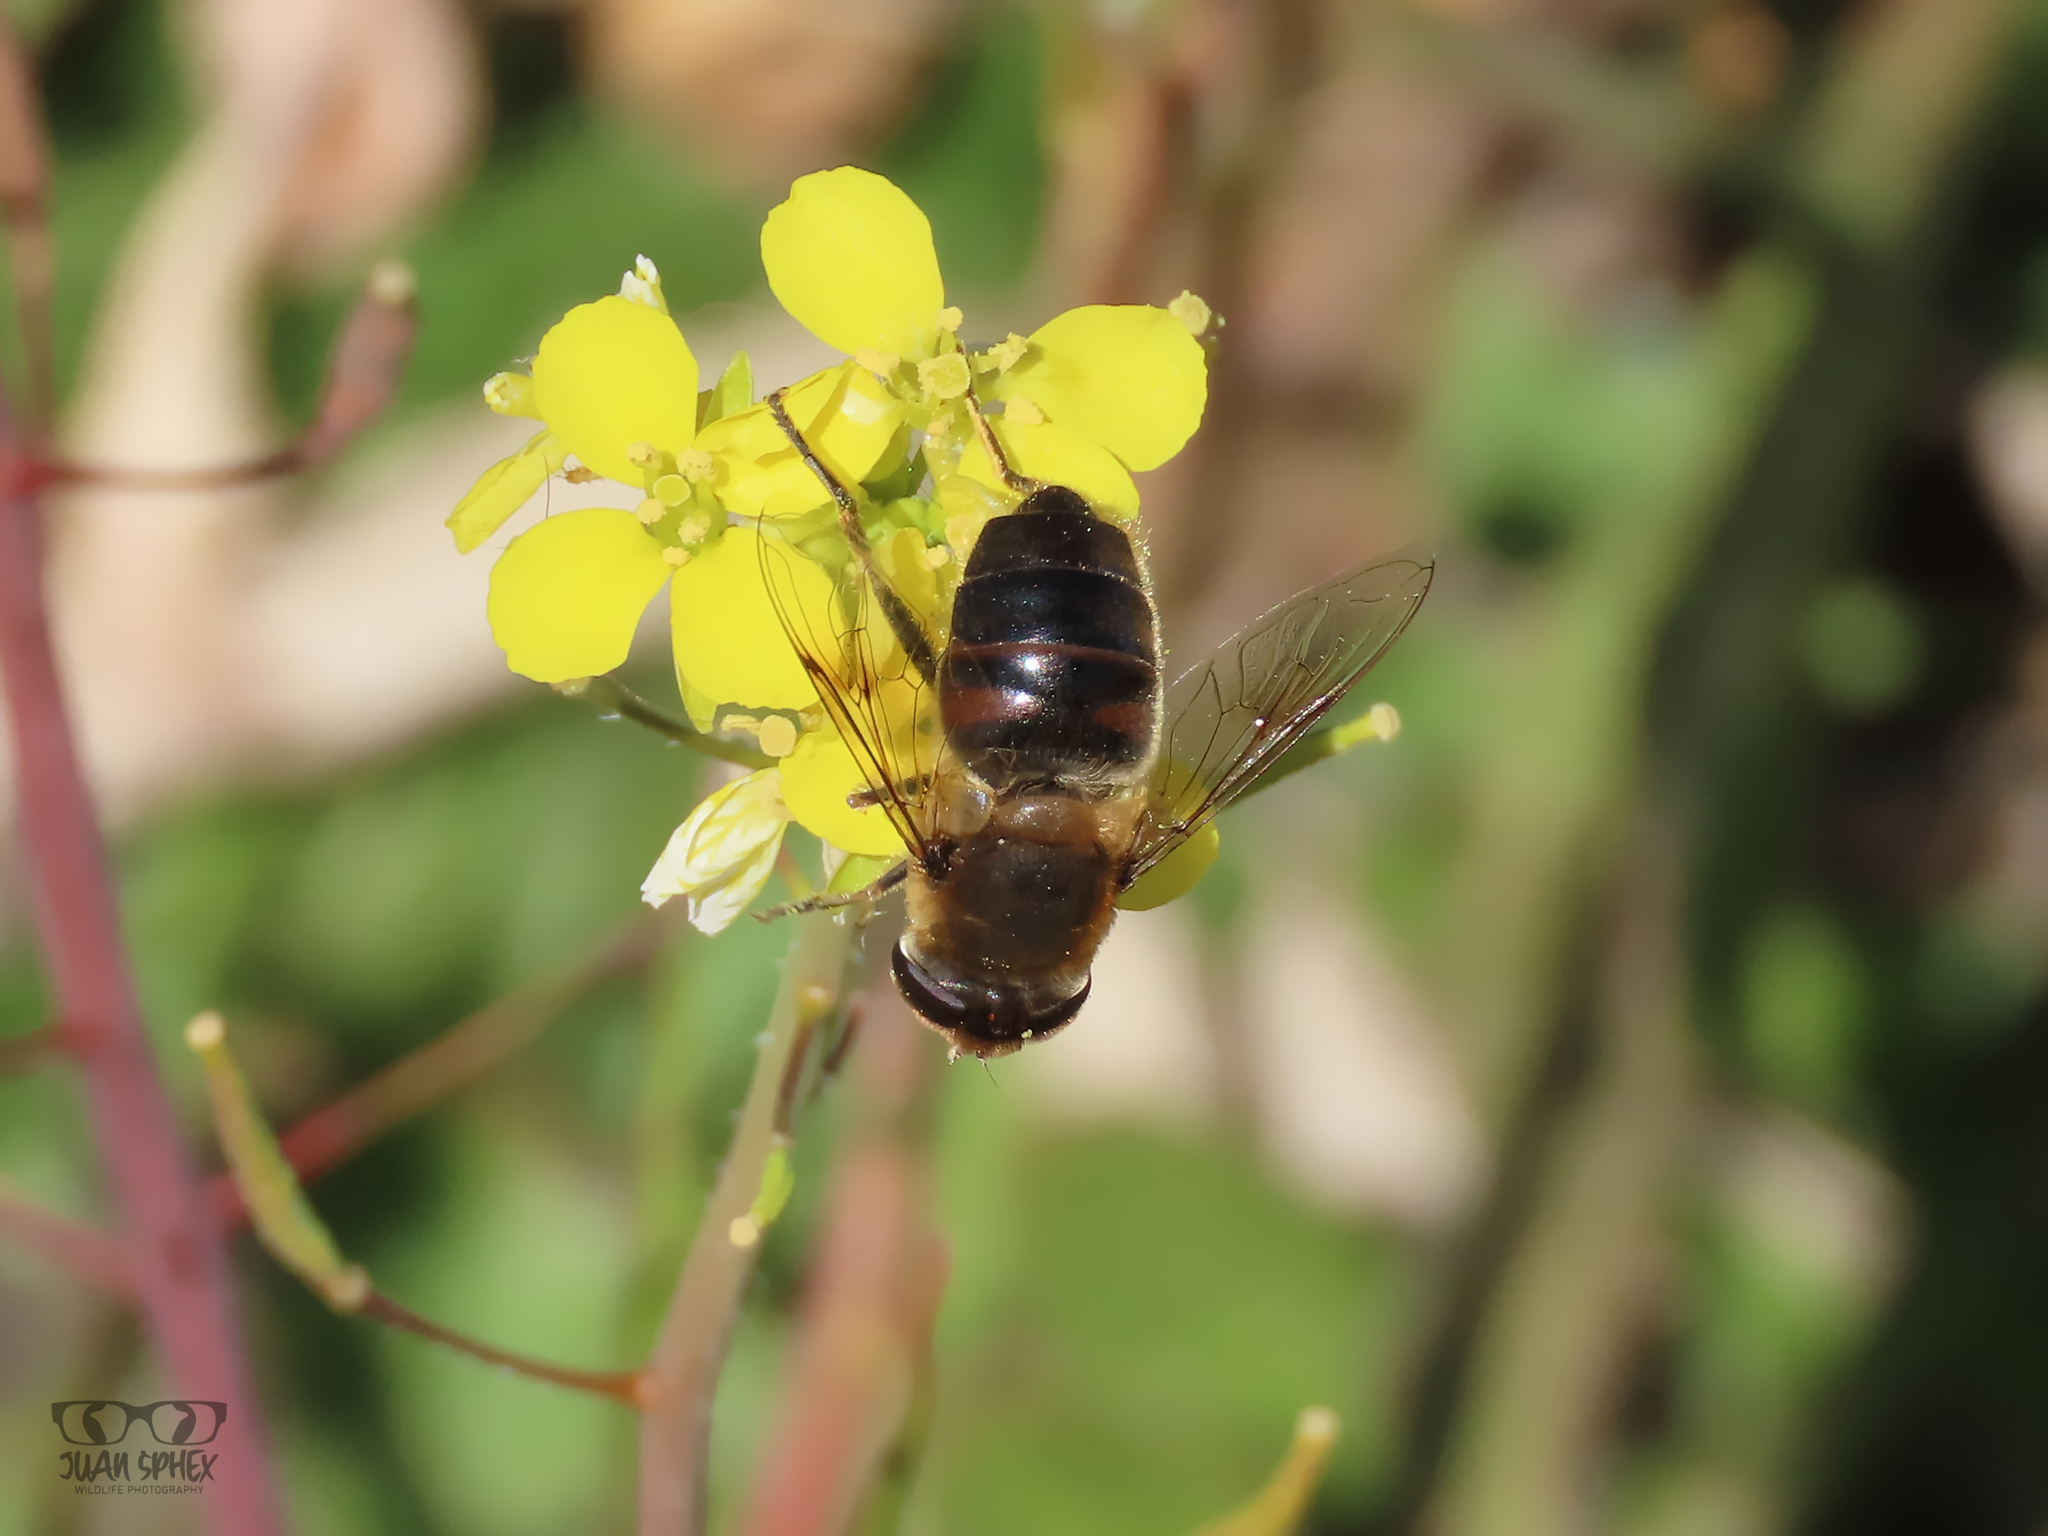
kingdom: Animalia
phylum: Arthropoda
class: Insecta
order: Diptera
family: Syrphidae
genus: Eristalis
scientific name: Eristalis tenax
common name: Drone fly
